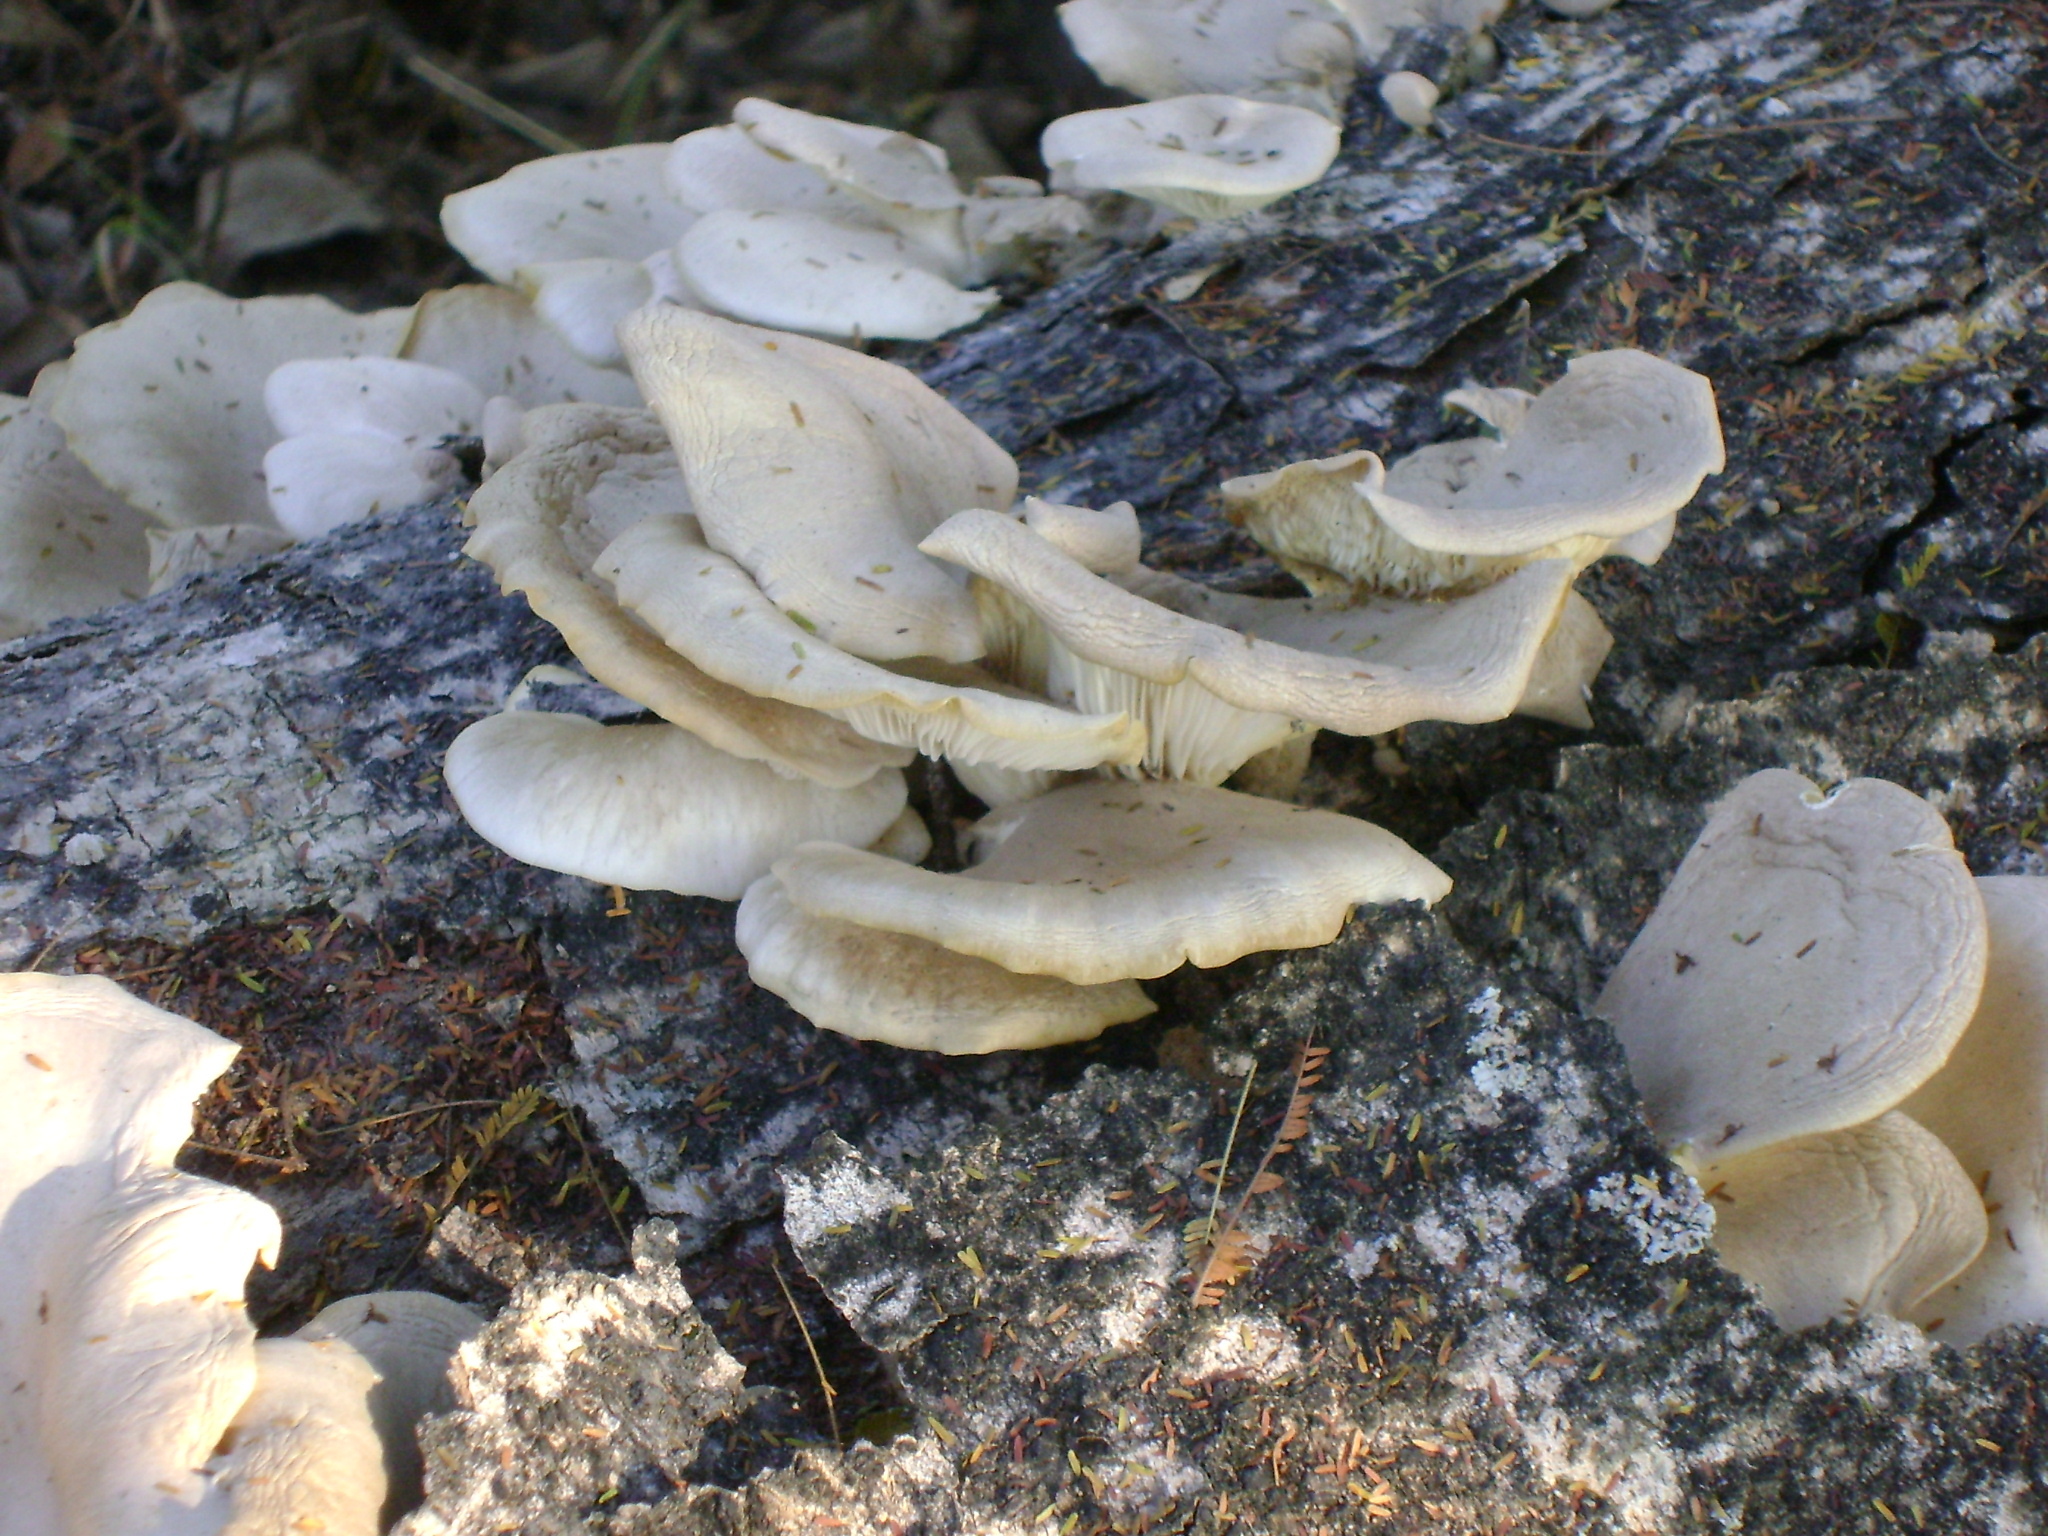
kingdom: Fungi
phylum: Basidiomycota
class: Agaricomycetes
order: Agaricales
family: Pleurotaceae
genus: Pleurotus
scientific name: Pleurotus ostreatus
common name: Oyster mushroom
